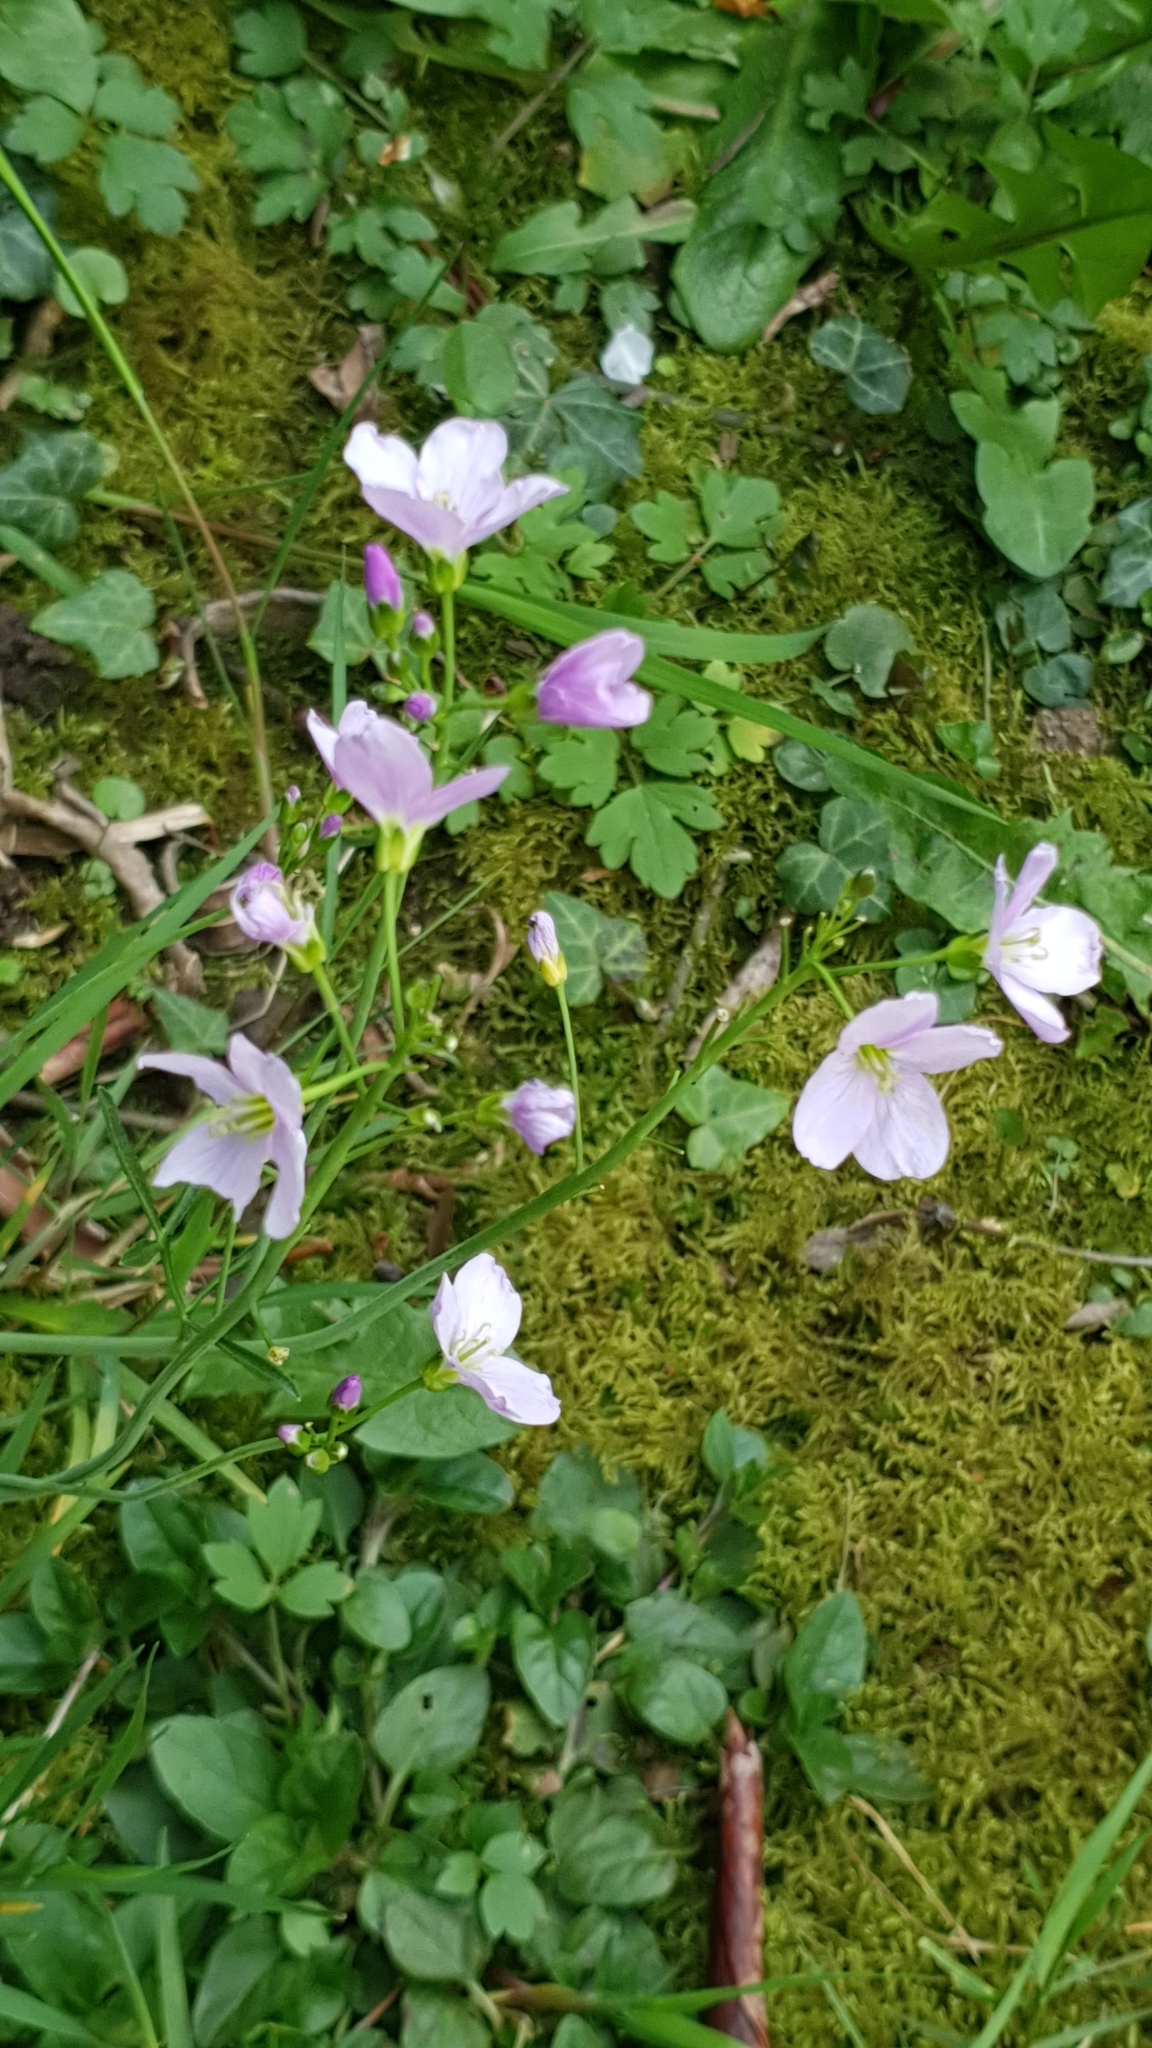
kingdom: Plantae
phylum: Tracheophyta
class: Magnoliopsida
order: Brassicales
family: Brassicaceae
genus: Cardamine
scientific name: Cardamine pratensis
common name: Cuckoo flower
